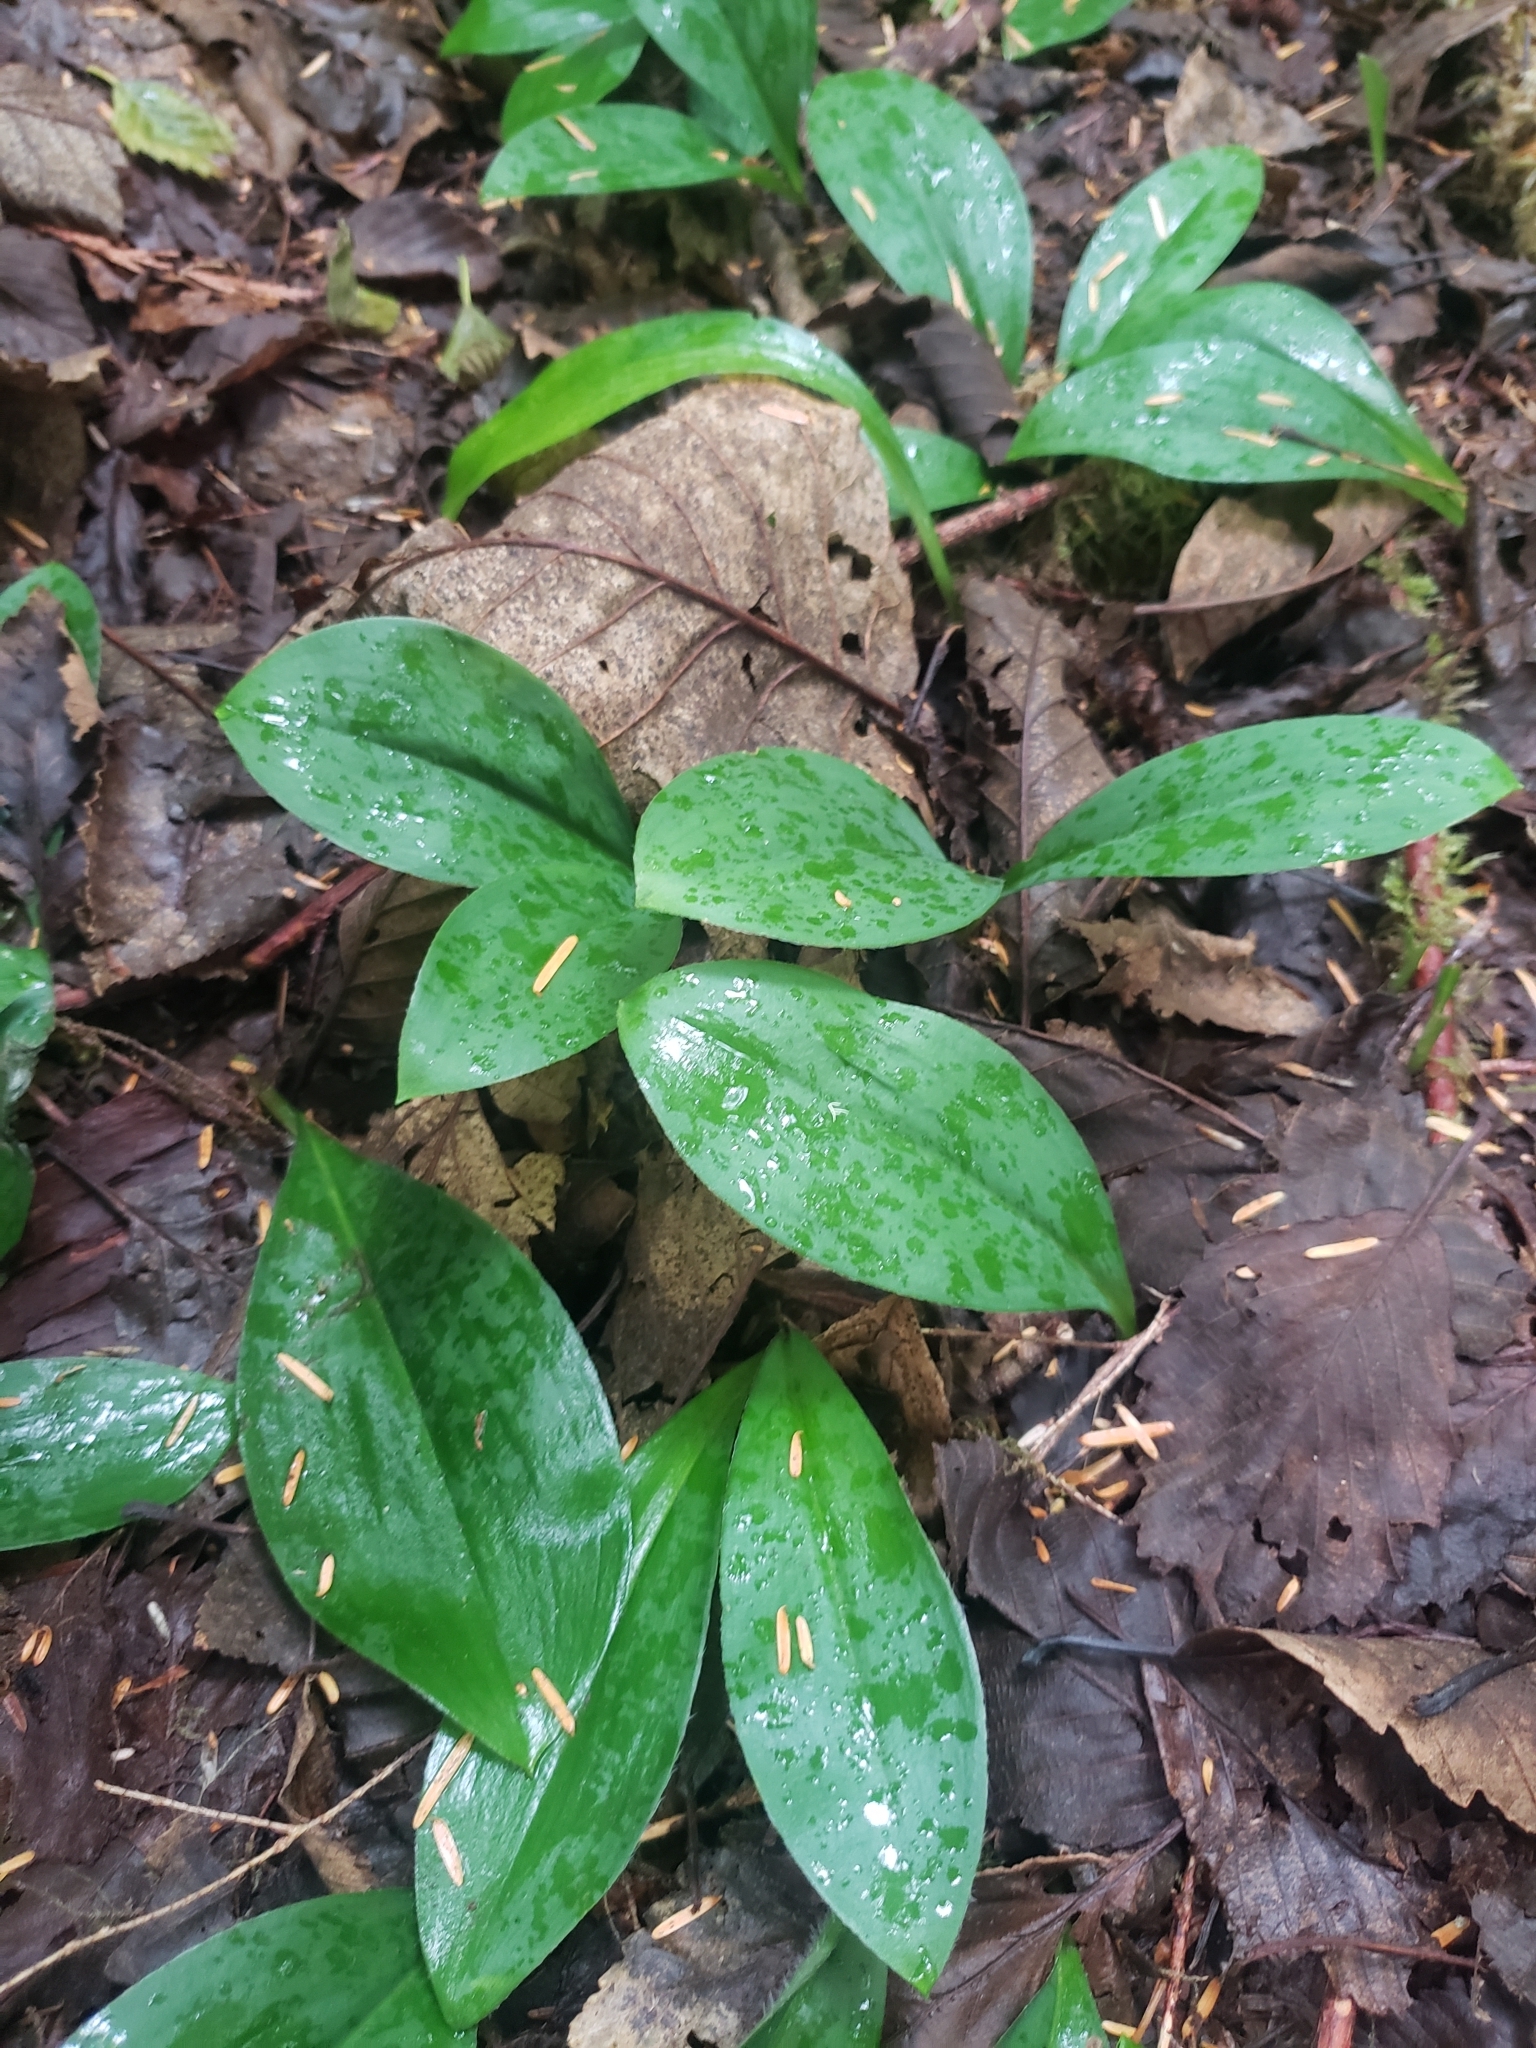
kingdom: Plantae
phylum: Tracheophyta
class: Liliopsida
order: Liliales
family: Liliaceae
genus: Clintonia
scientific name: Clintonia uniflora
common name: Queen's cup
